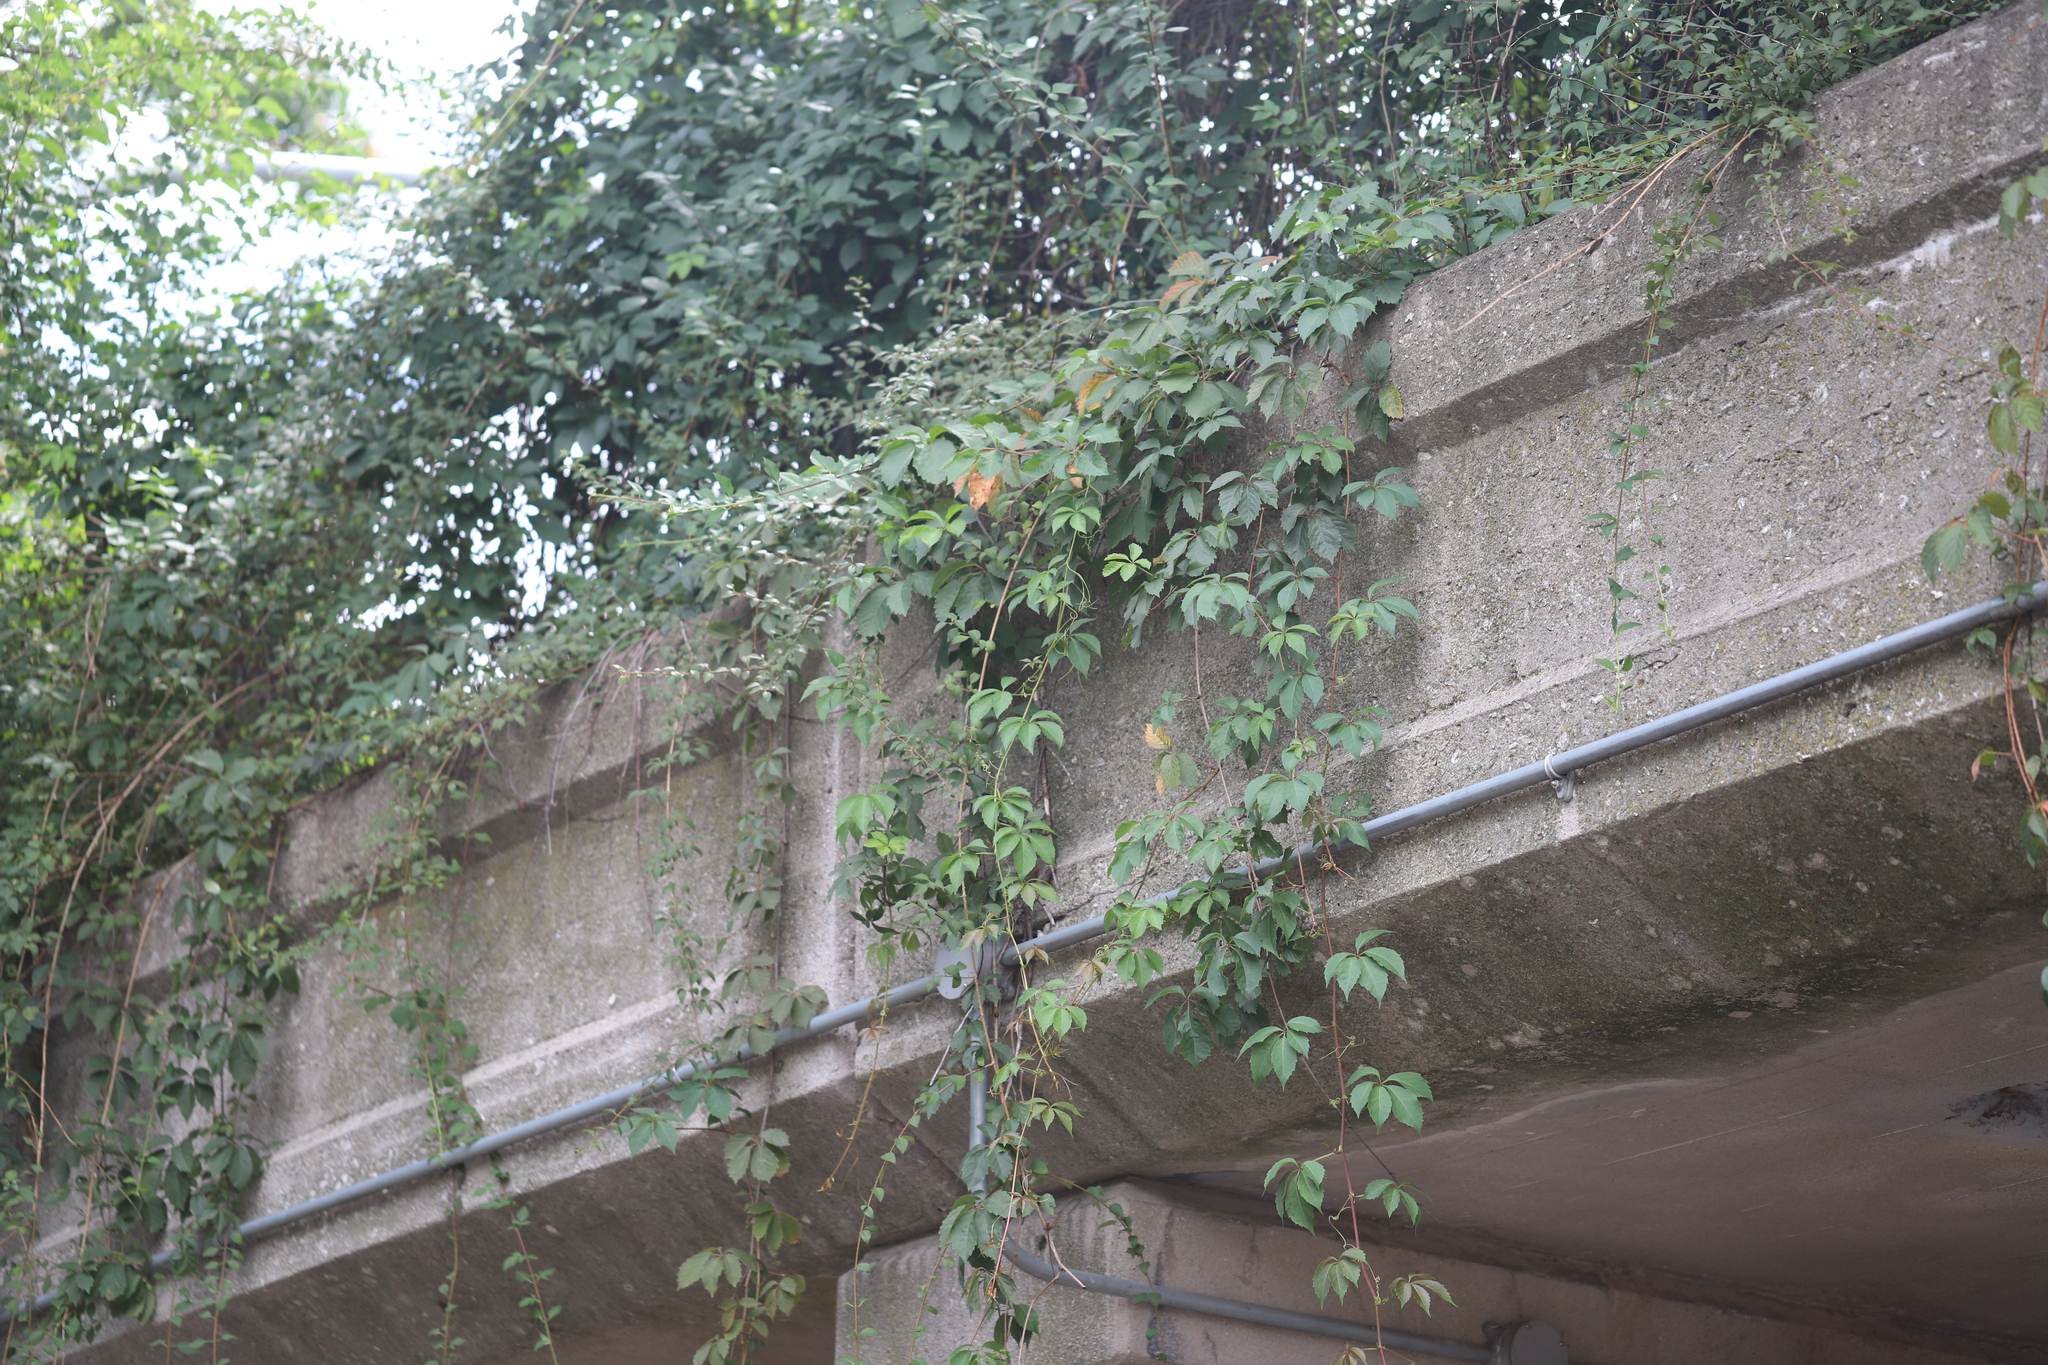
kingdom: Plantae
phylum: Tracheophyta
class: Magnoliopsida
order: Vitales
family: Vitaceae
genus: Parthenocissus
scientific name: Parthenocissus quinquefolia
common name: Virginia-creeper
